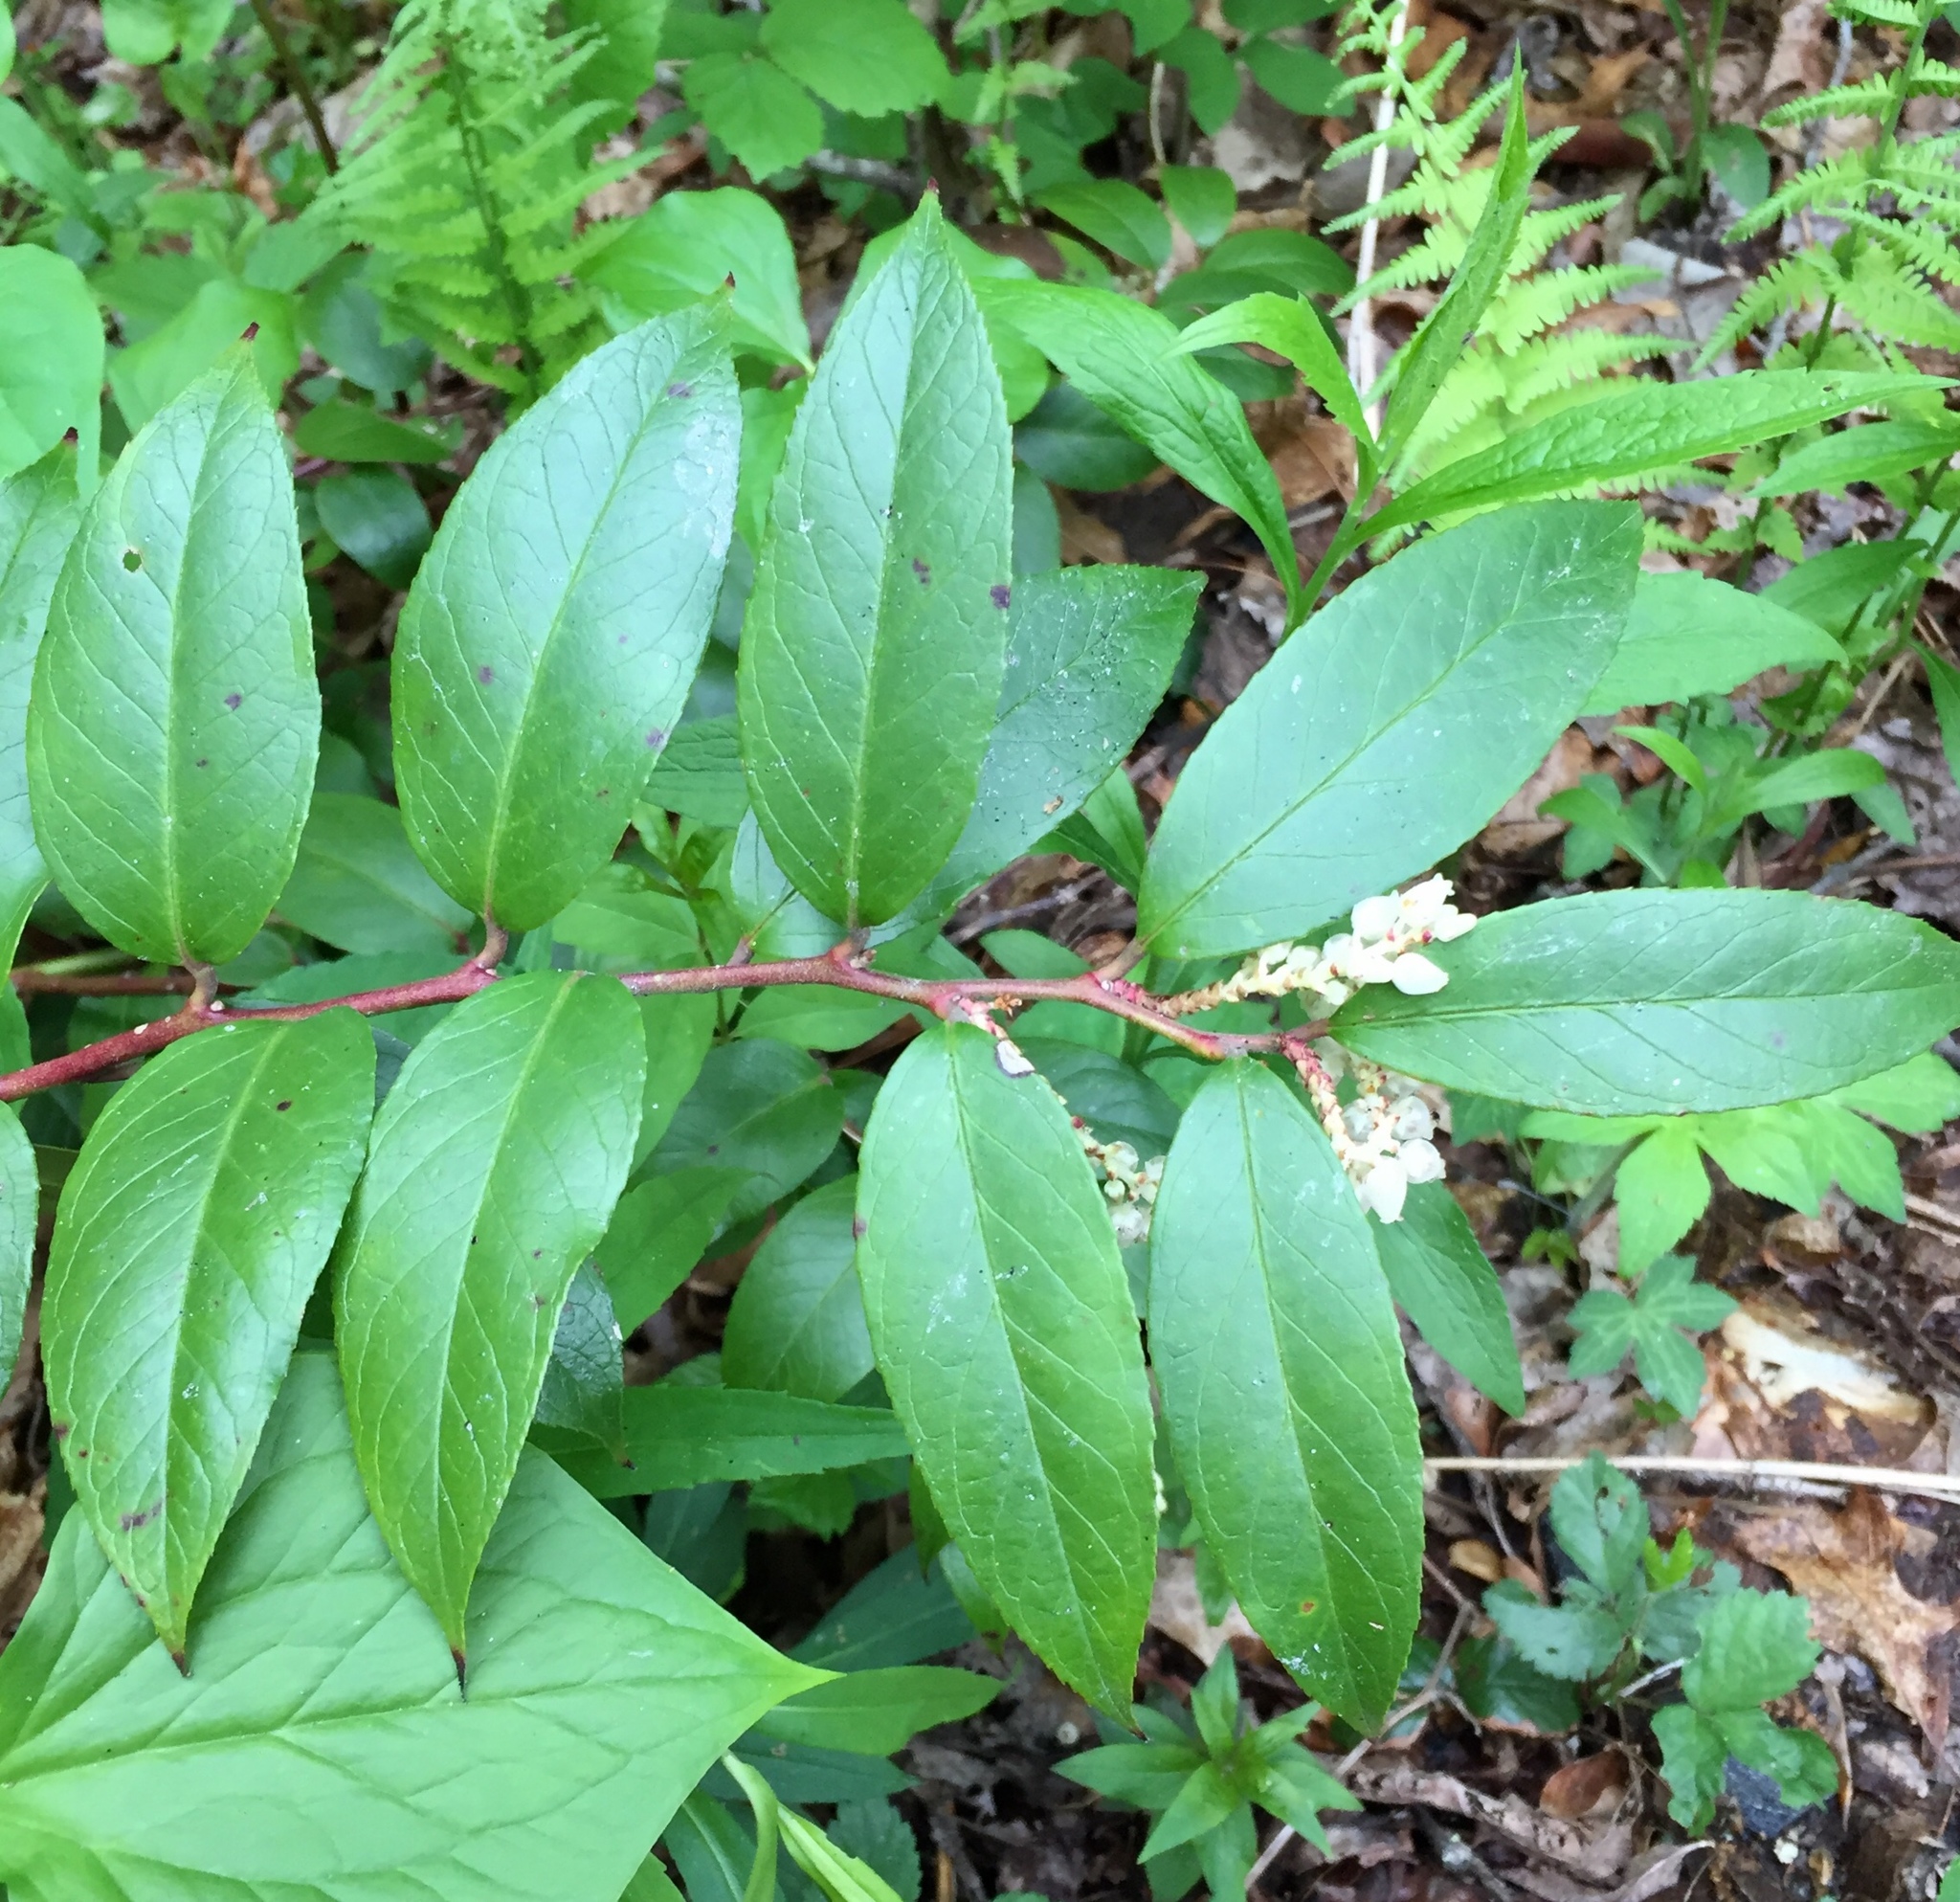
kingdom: Plantae
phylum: Tracheophyta
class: Magnoliopsida
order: Ericales
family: Ericaceae
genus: Leucothoe
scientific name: Leucothoe fontanesiana
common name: Fetterbush
